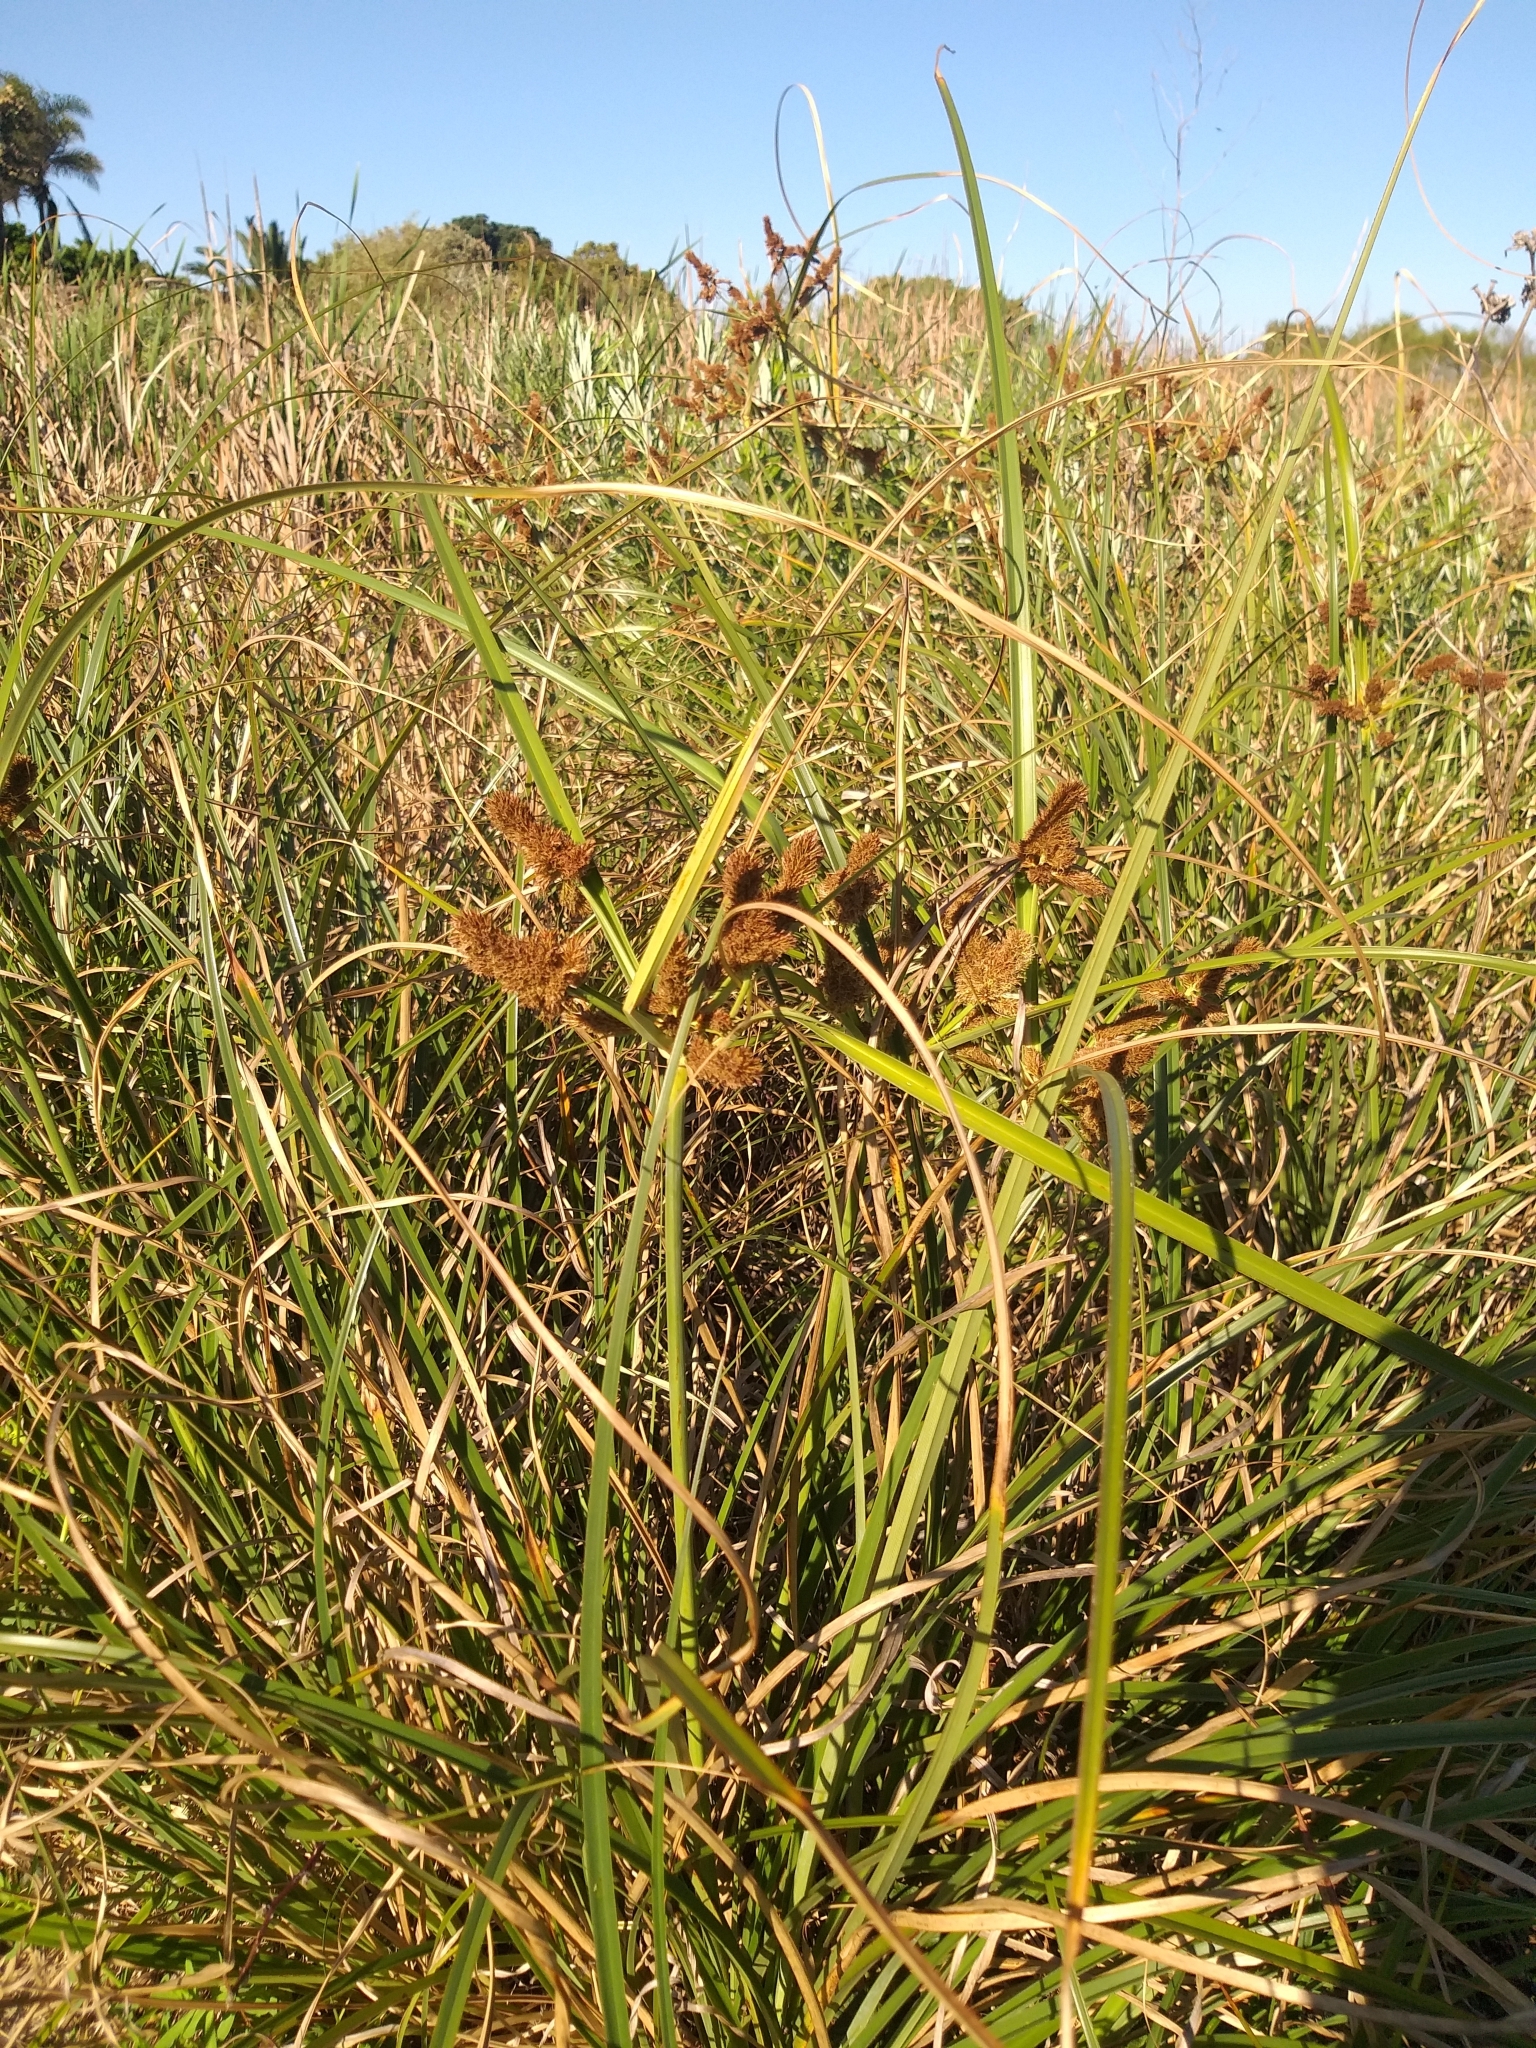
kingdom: Plantae
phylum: Tracheophyta
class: Liliopsida
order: Poales
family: Cyperaceae
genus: Cyperus
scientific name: Cyperus thunbergii
